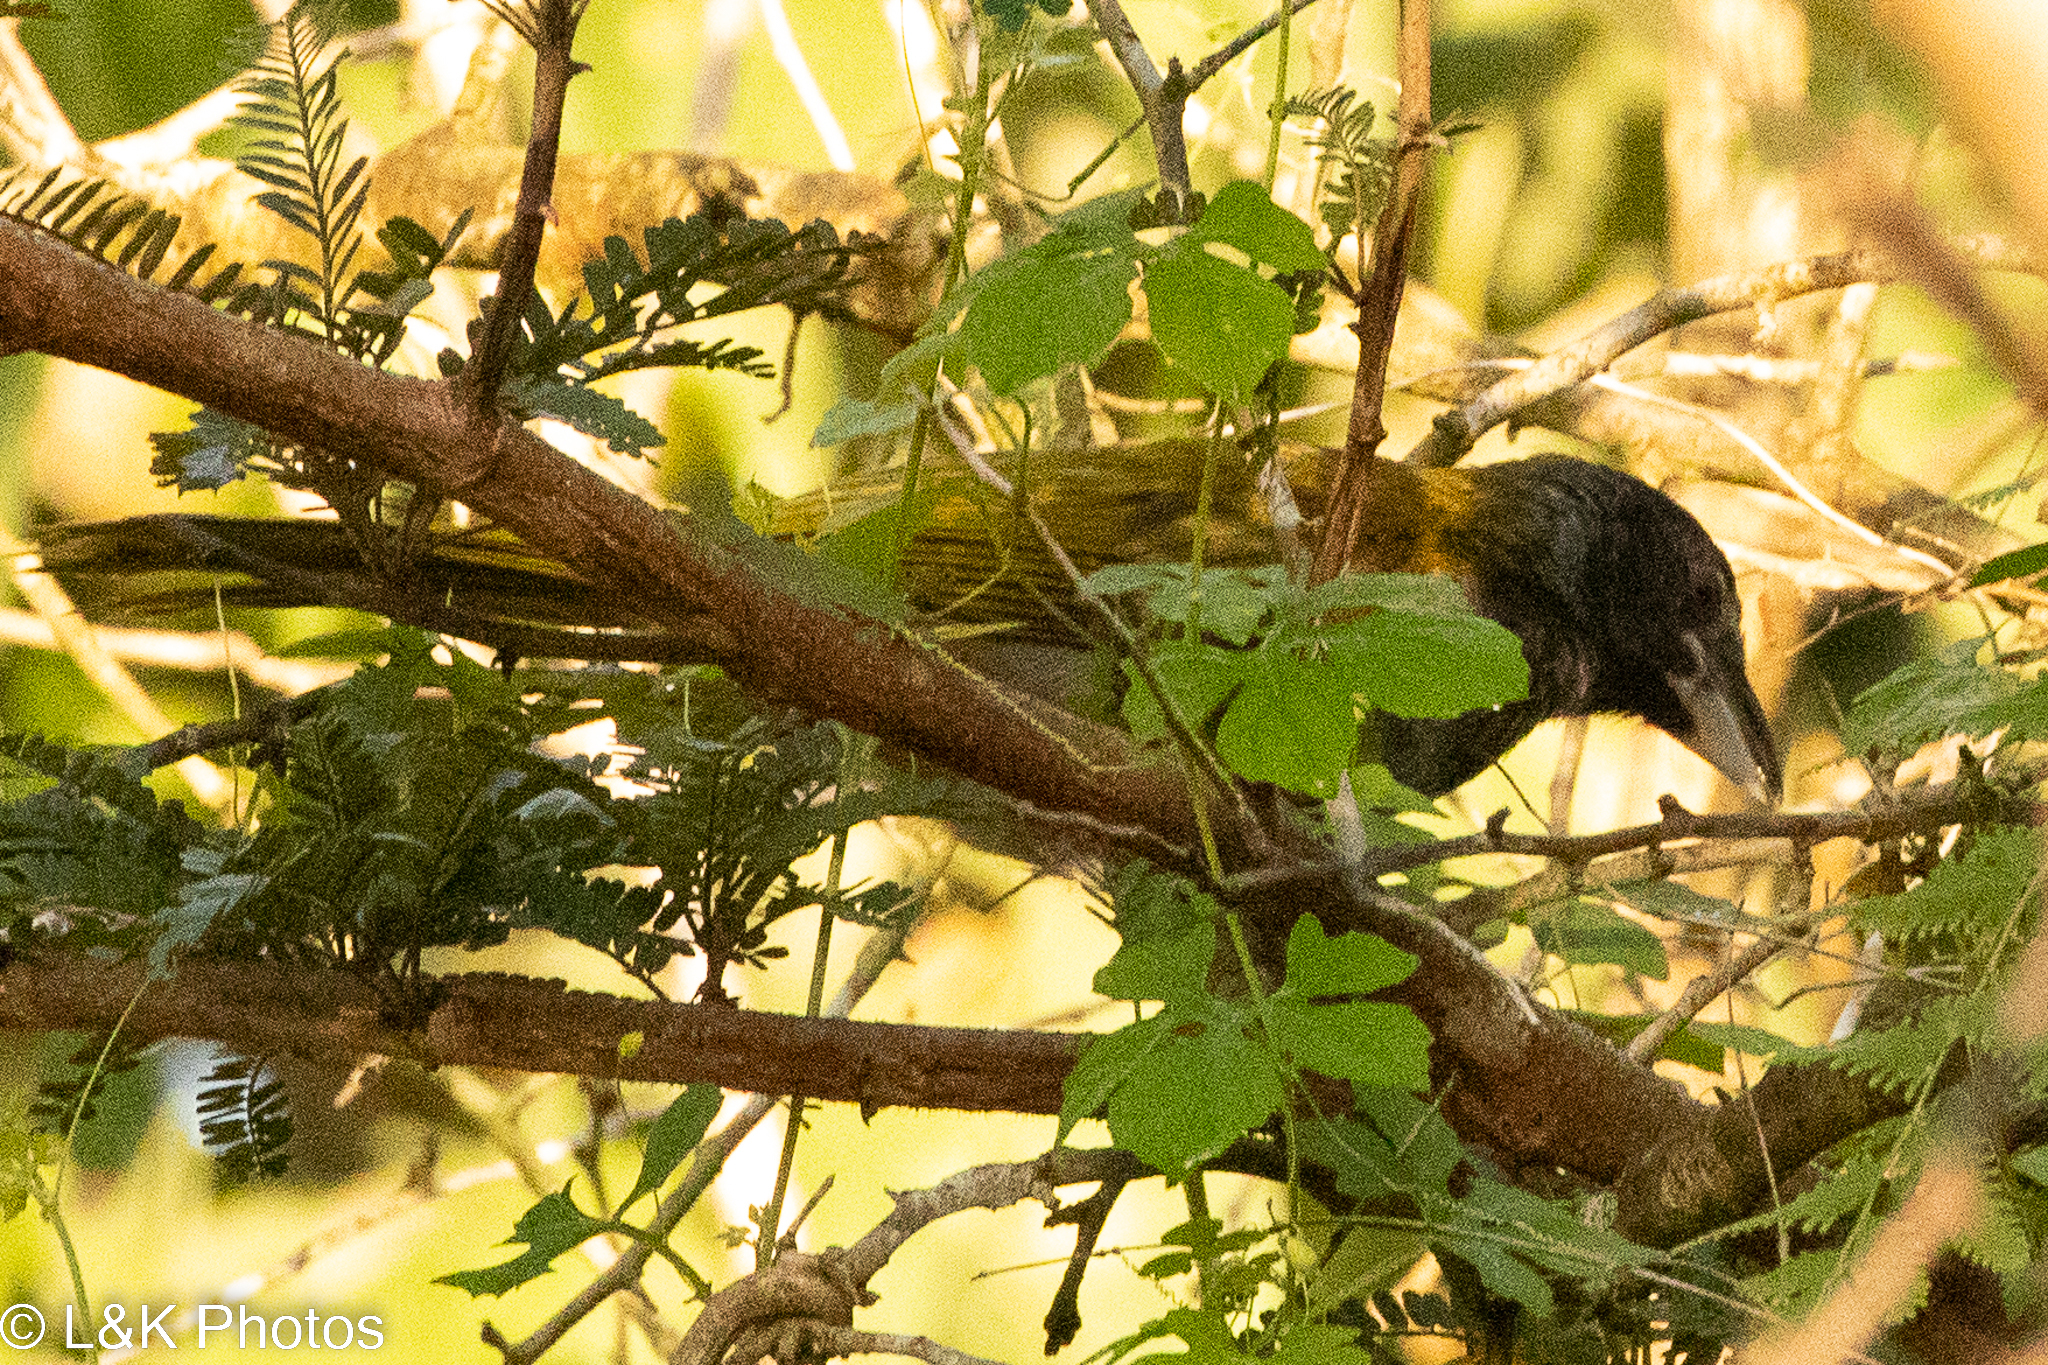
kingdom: Animalia
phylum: Chordata
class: Aves
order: Passeriformes
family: Thraupidae
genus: Saltator
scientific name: Saltator atriceps
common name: Black-headed saltator
